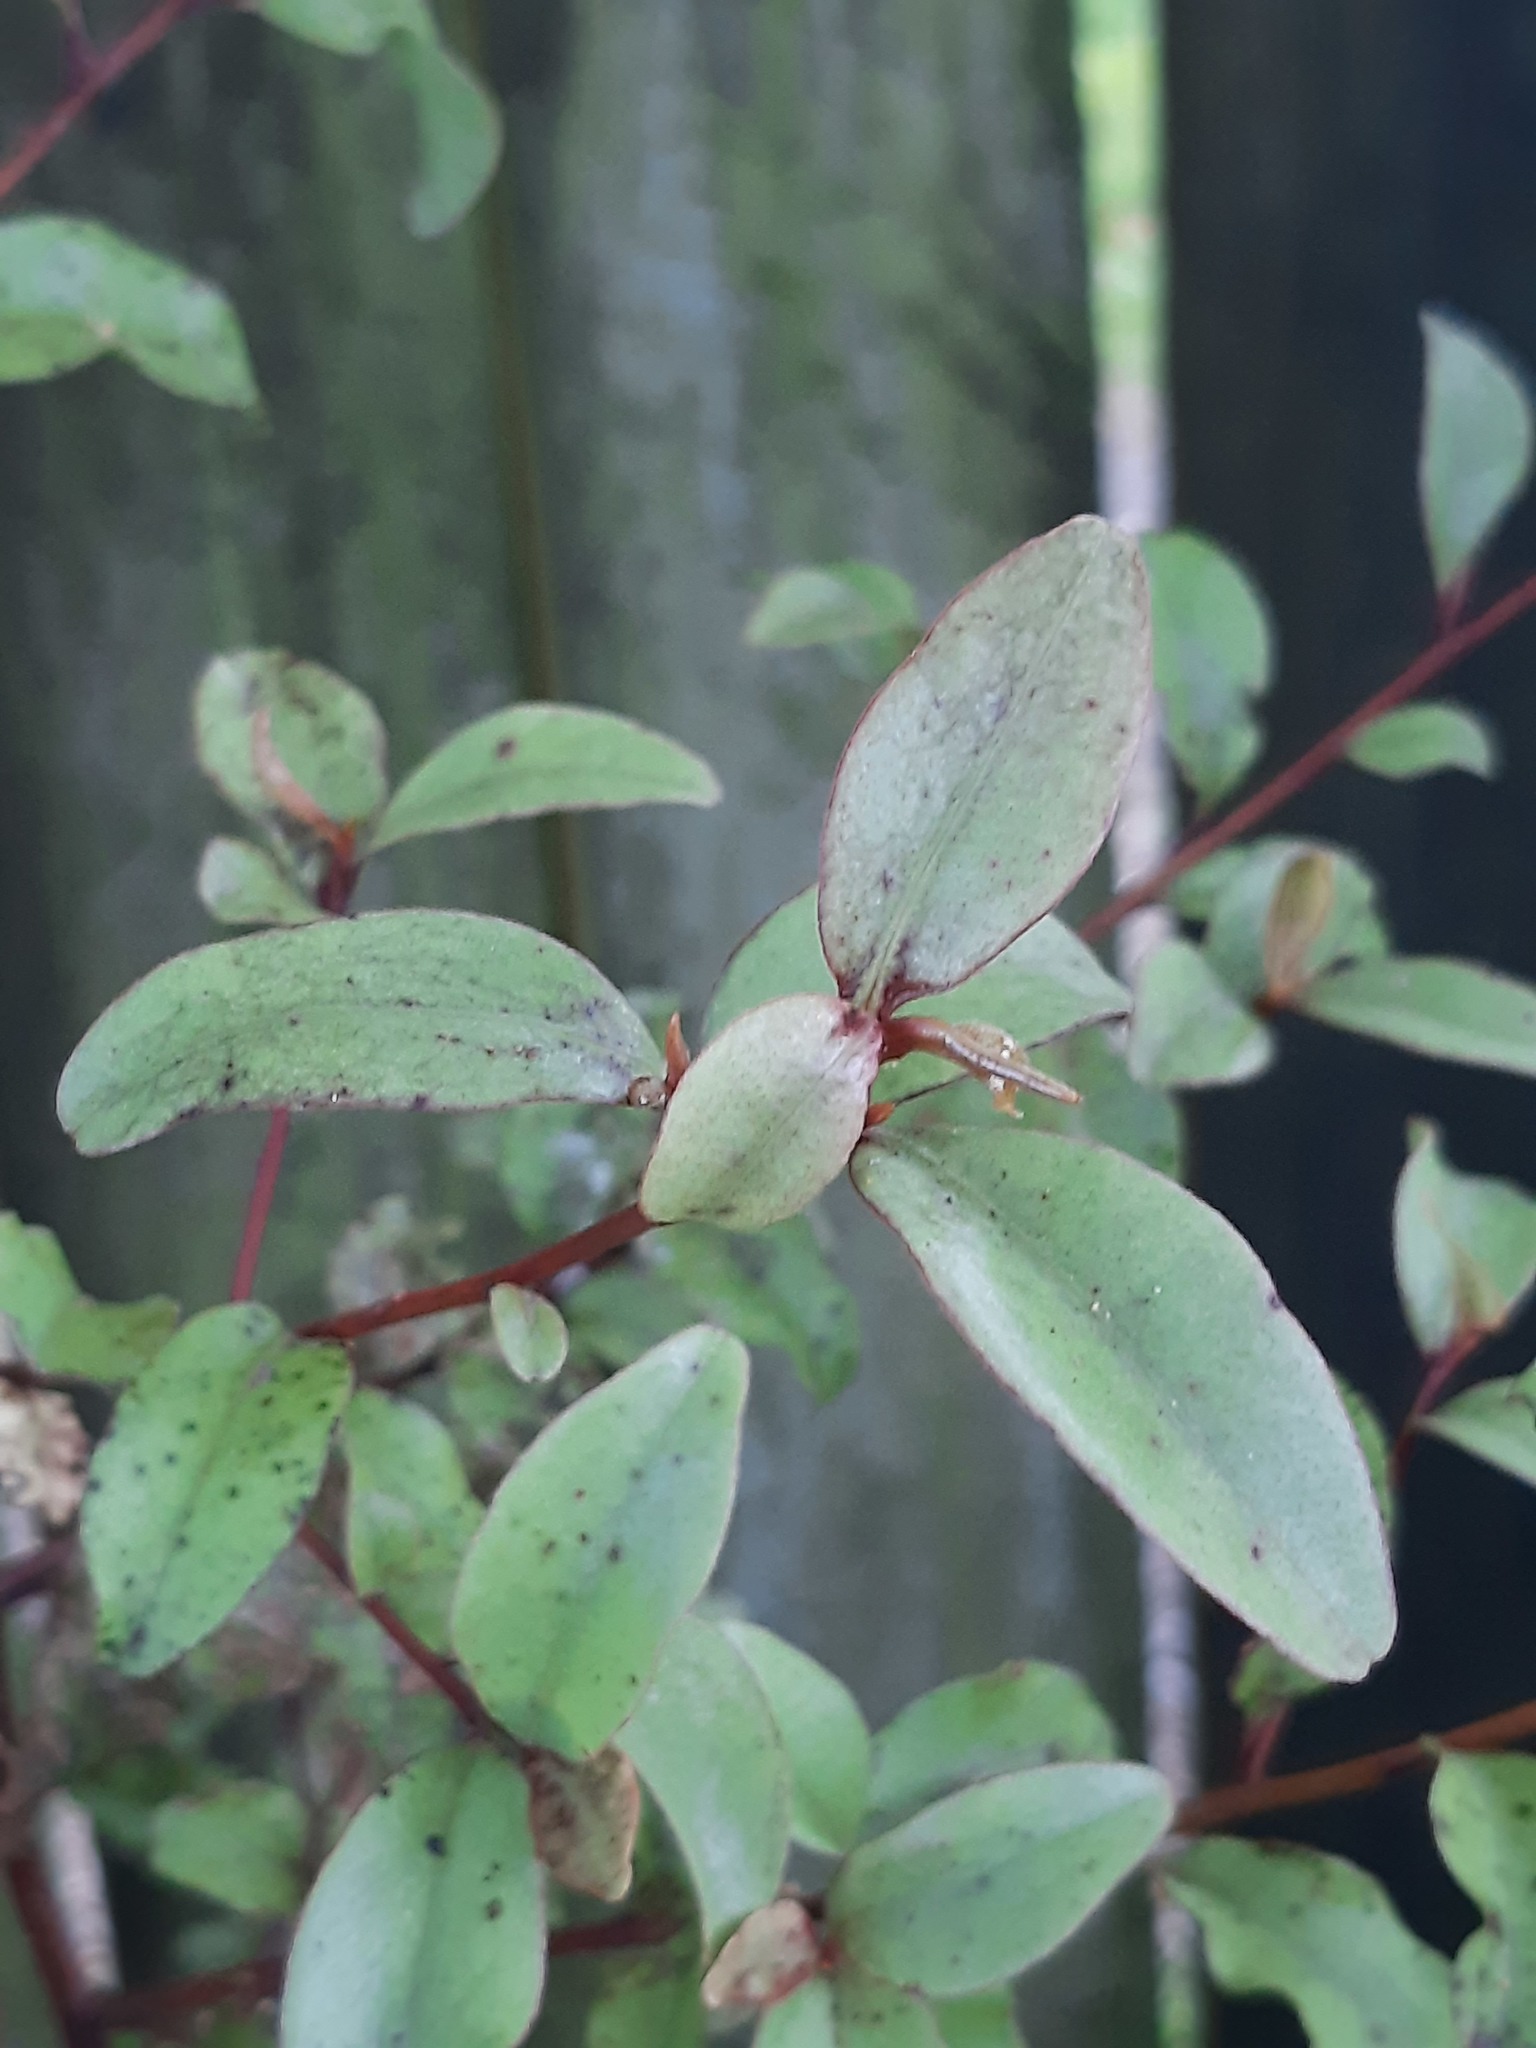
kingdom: Plantae
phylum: Tracheophyta
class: Magnoliopsida
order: Ericales
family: Primulaceae
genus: Myrsine
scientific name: Myrsine australis
